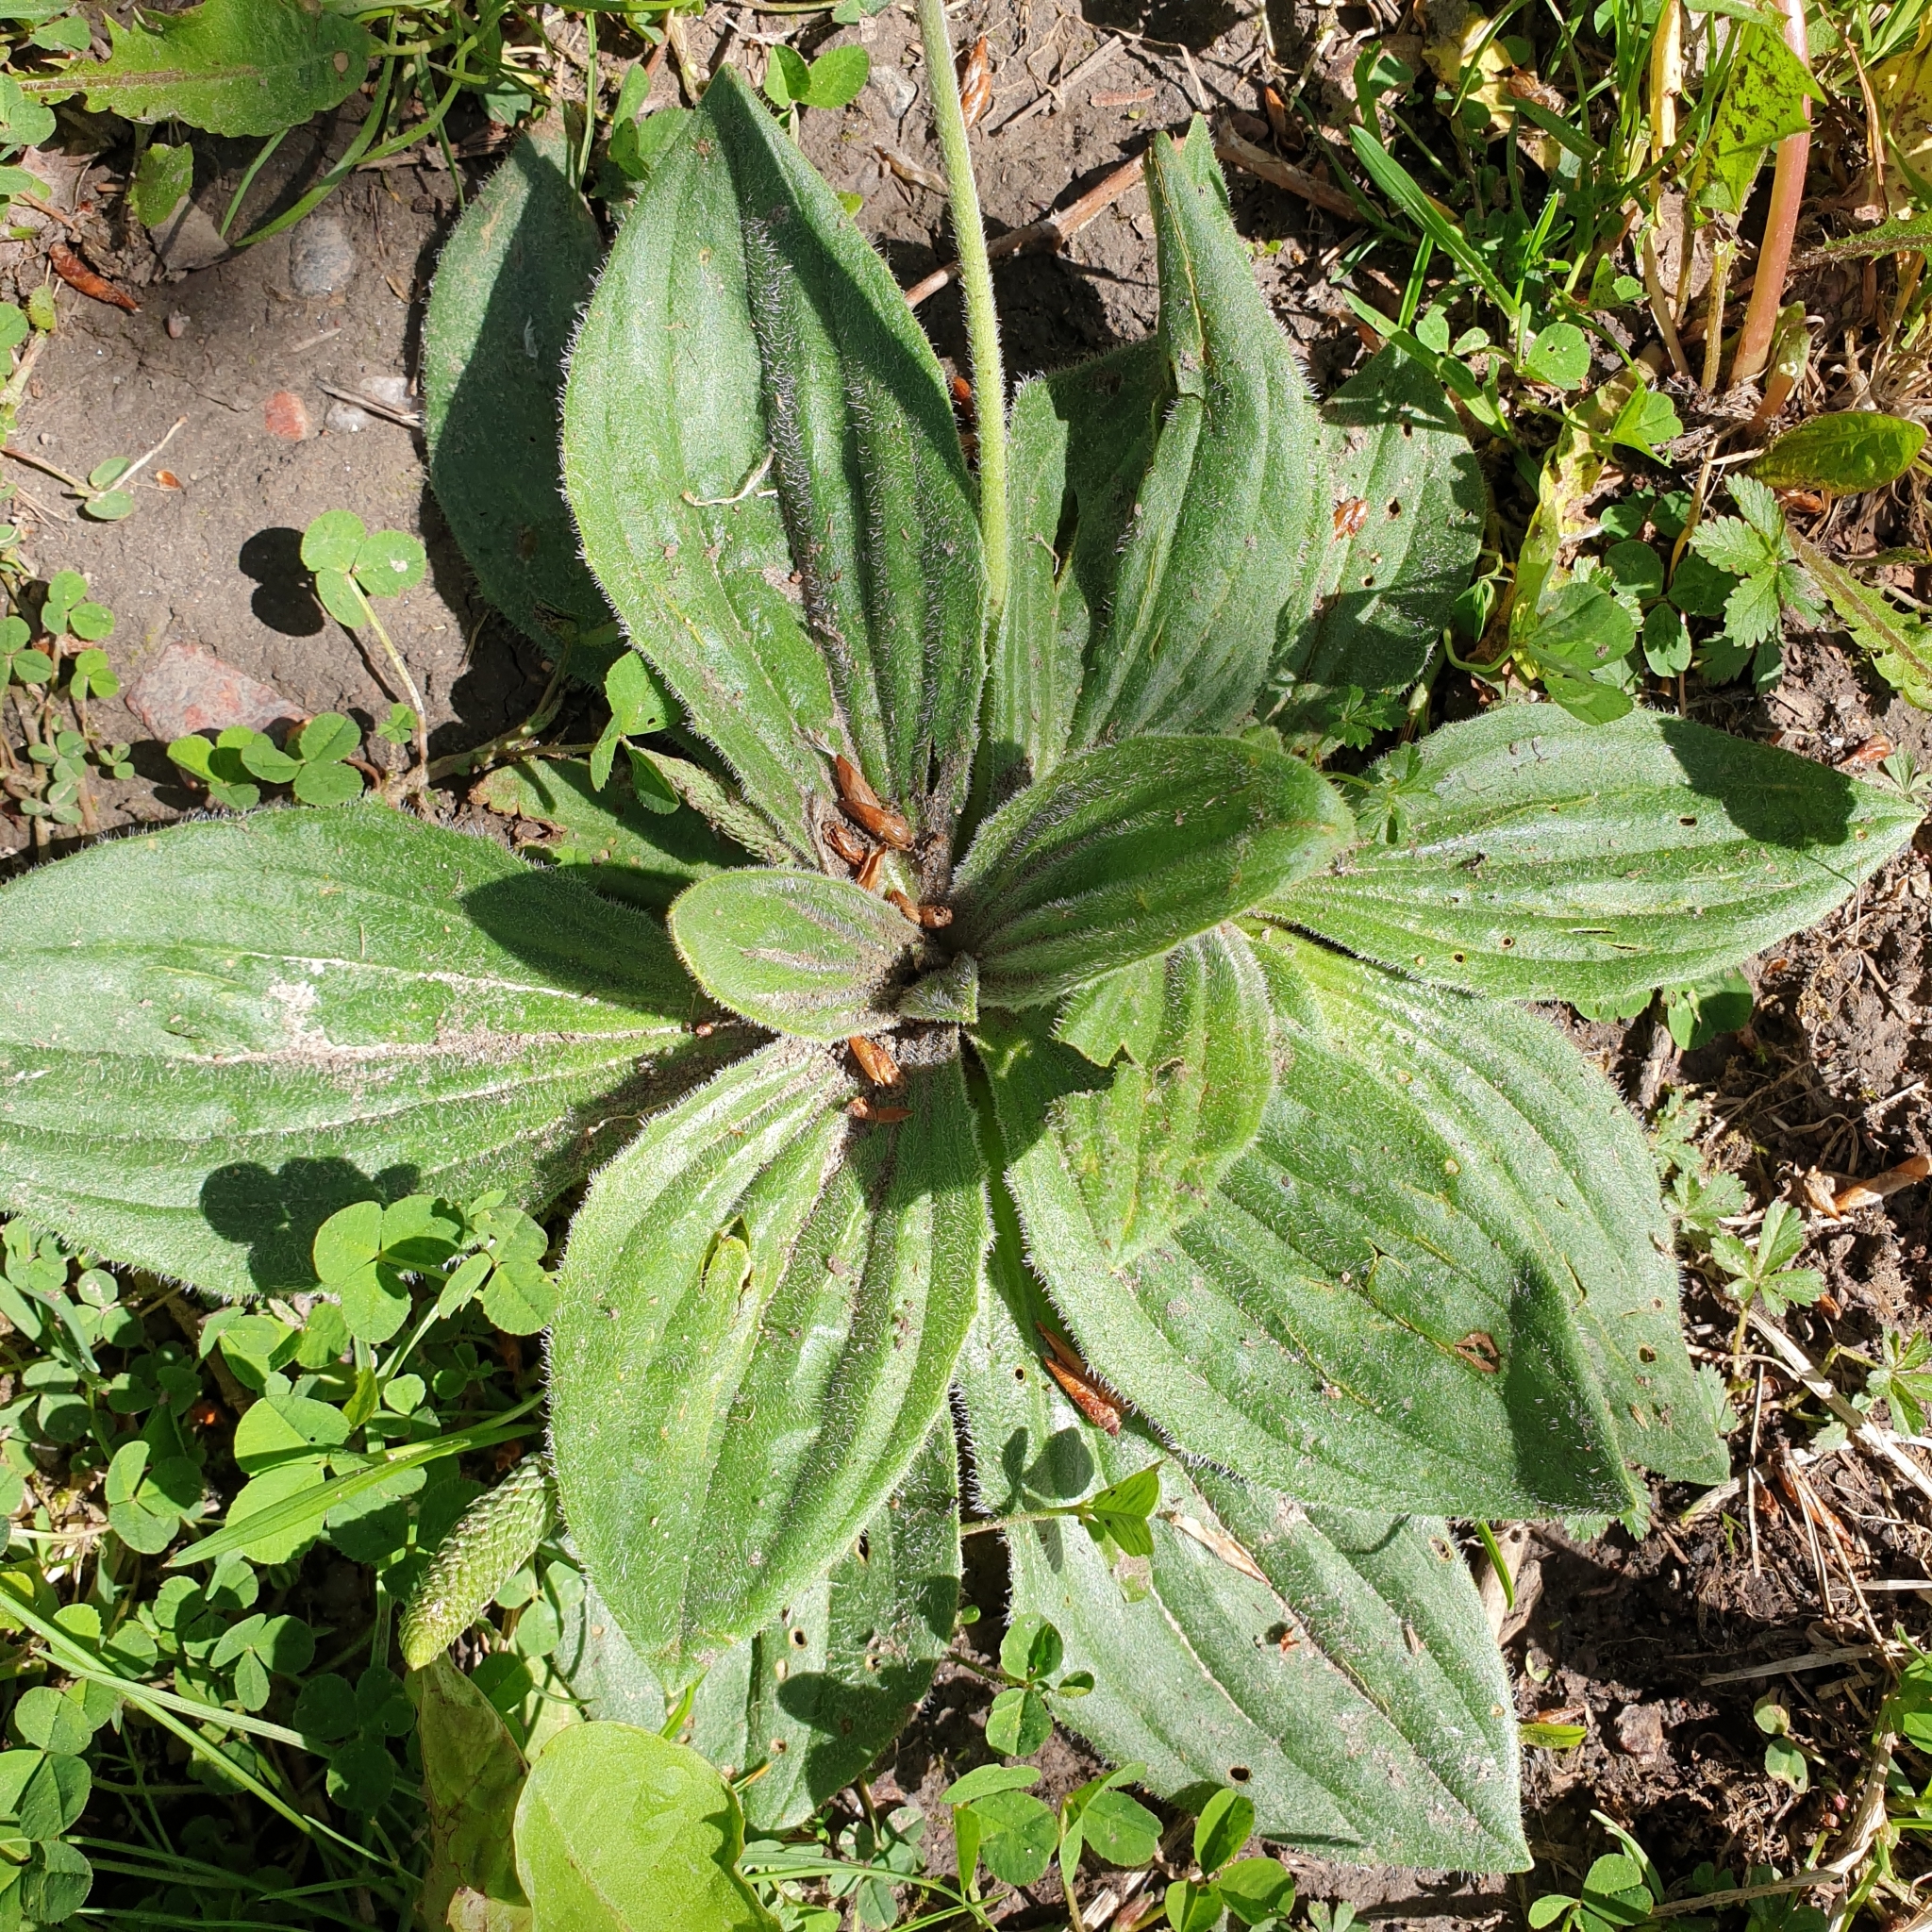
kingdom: Plantae
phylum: Tracheophyta
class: Magnoliopsida
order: Lamiales
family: Plantaginaceae
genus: Plantago
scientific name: Plantago media
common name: Hoary plantain
